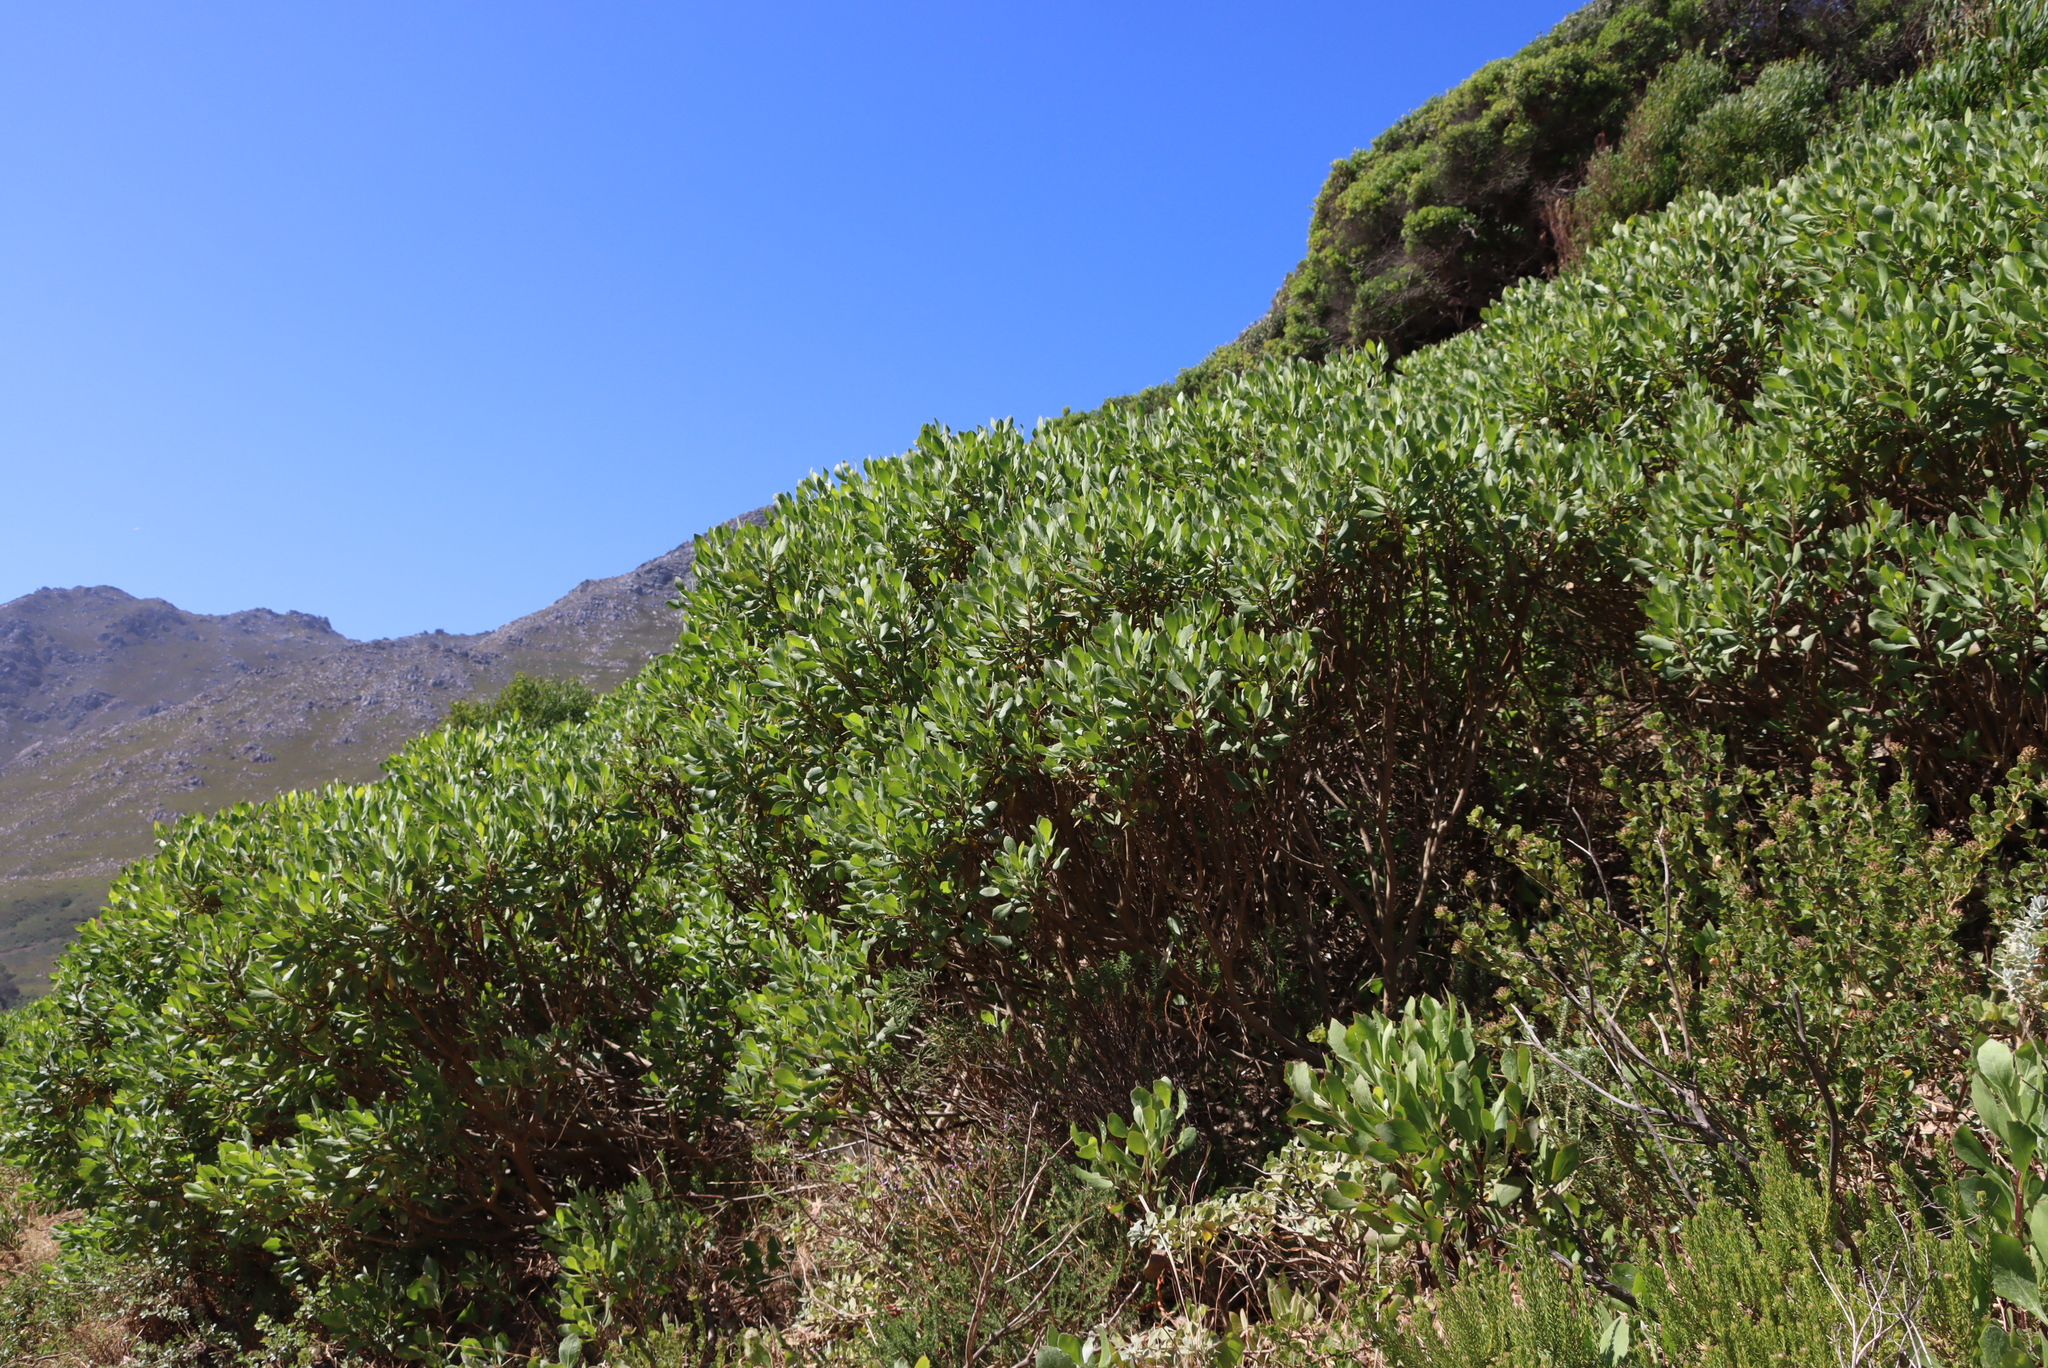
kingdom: Plantae
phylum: Tracheophyta
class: Magnoliopsida
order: Asterales
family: Asteraceae
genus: Osteospermum
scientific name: Osteospermum moniliferum
